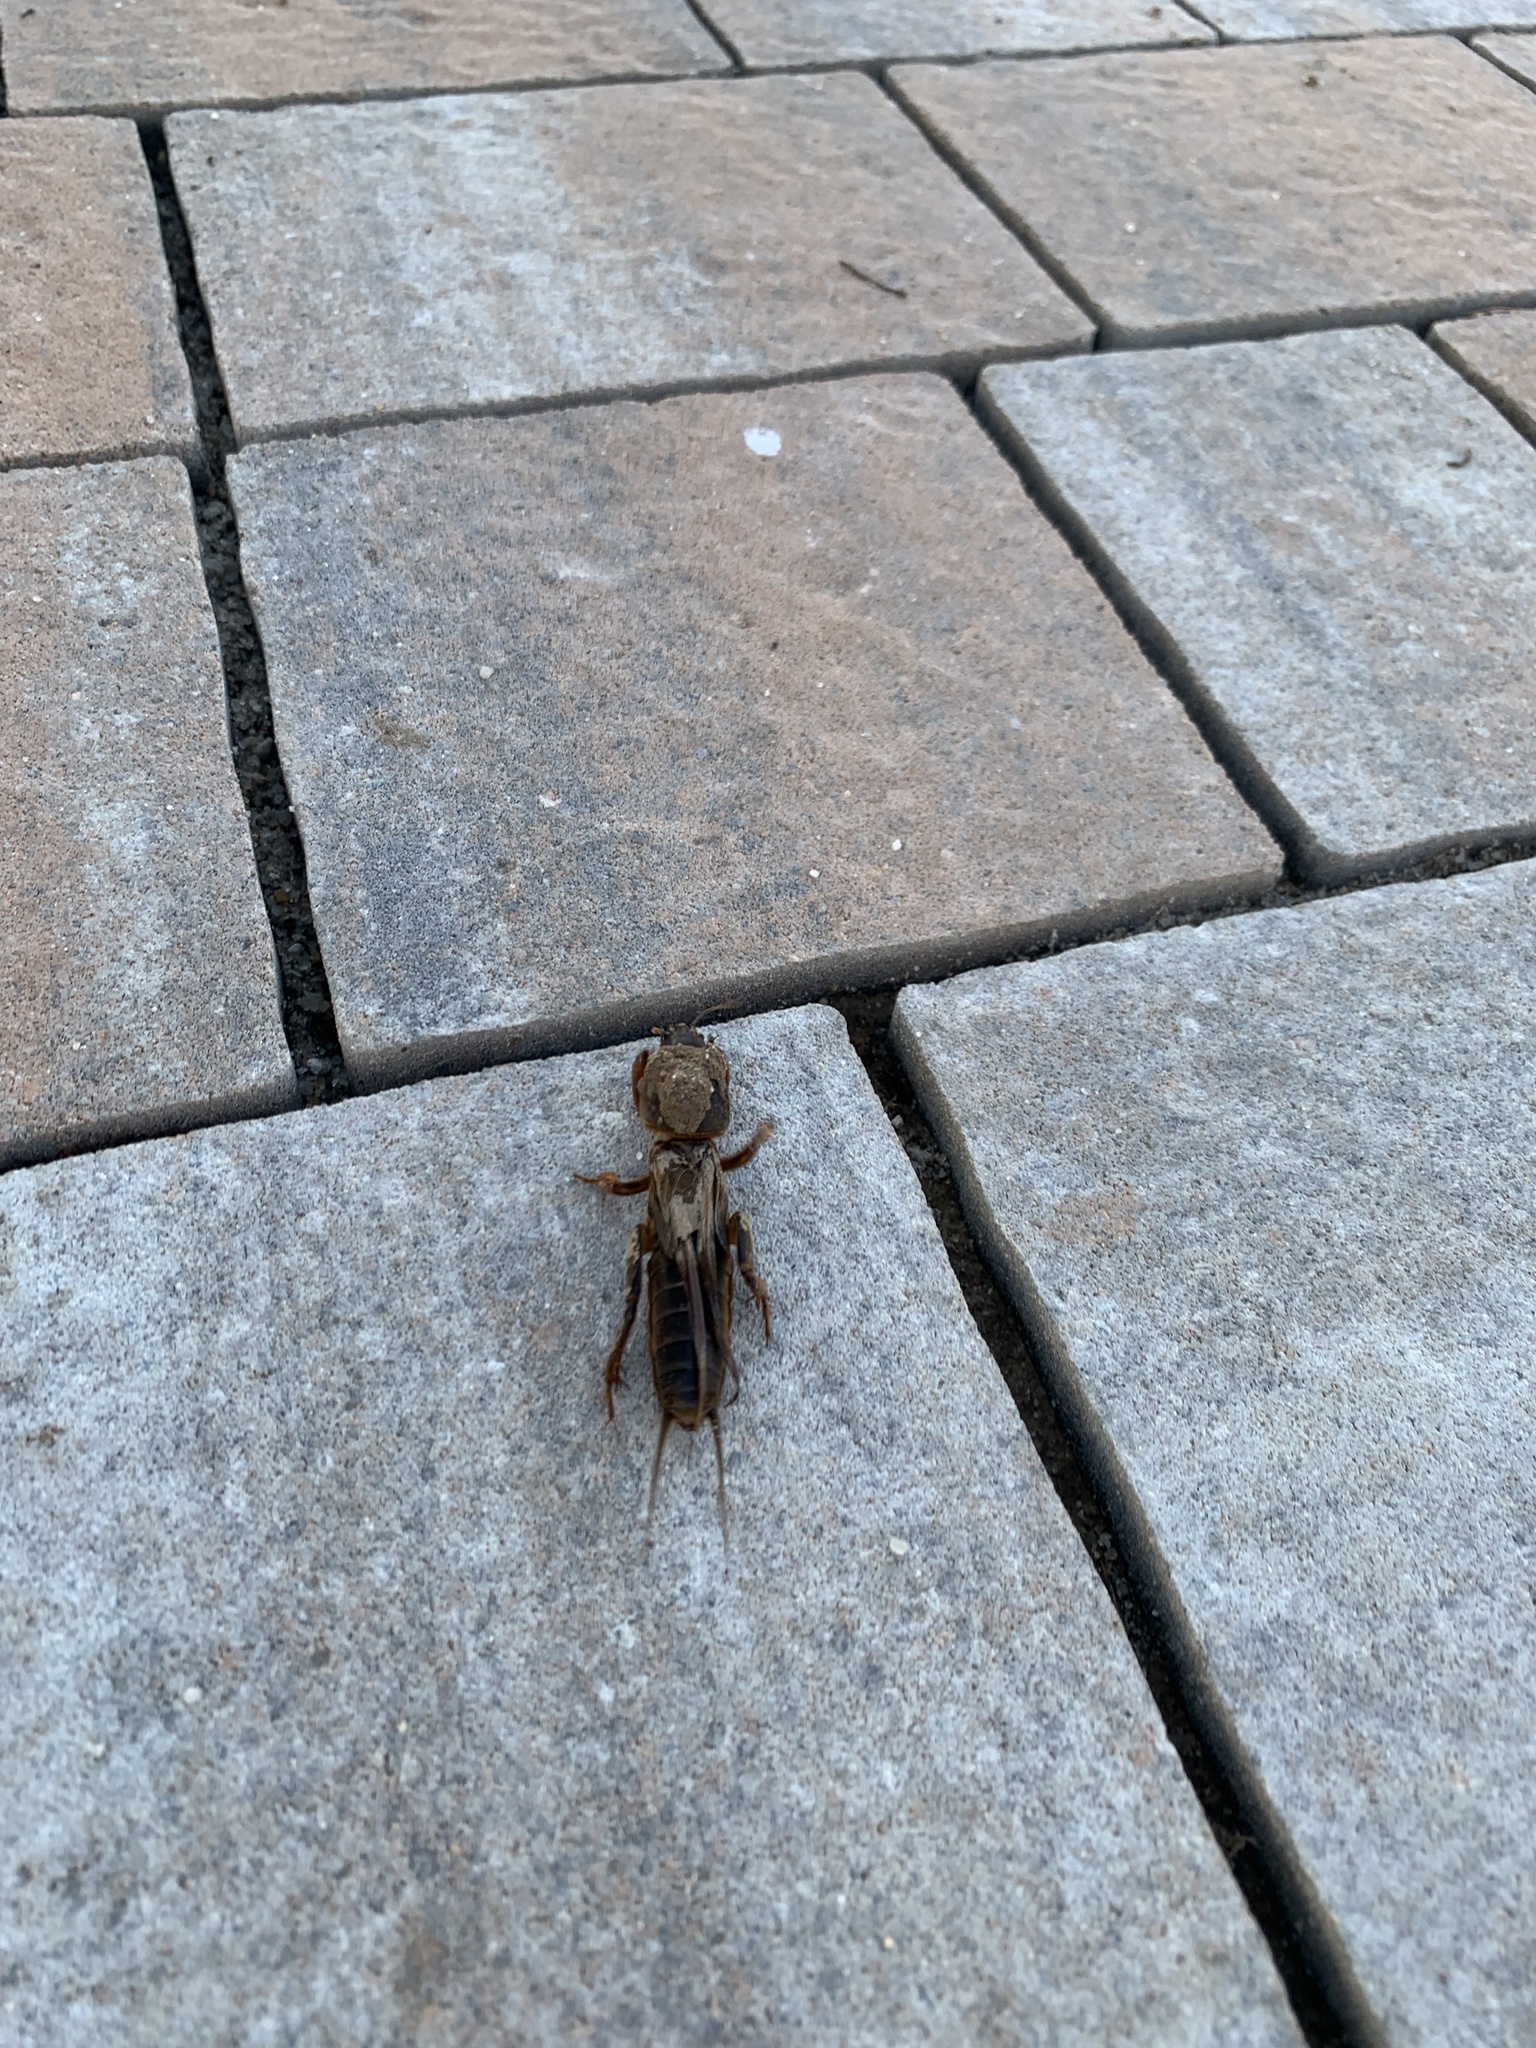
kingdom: Animalia
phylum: Arthropoda
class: Insecta
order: Orthoptera
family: Gryllotalpidae
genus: Gryllotalpa
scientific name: Gryllotalpa gryllotalpa
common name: European mole cricket
